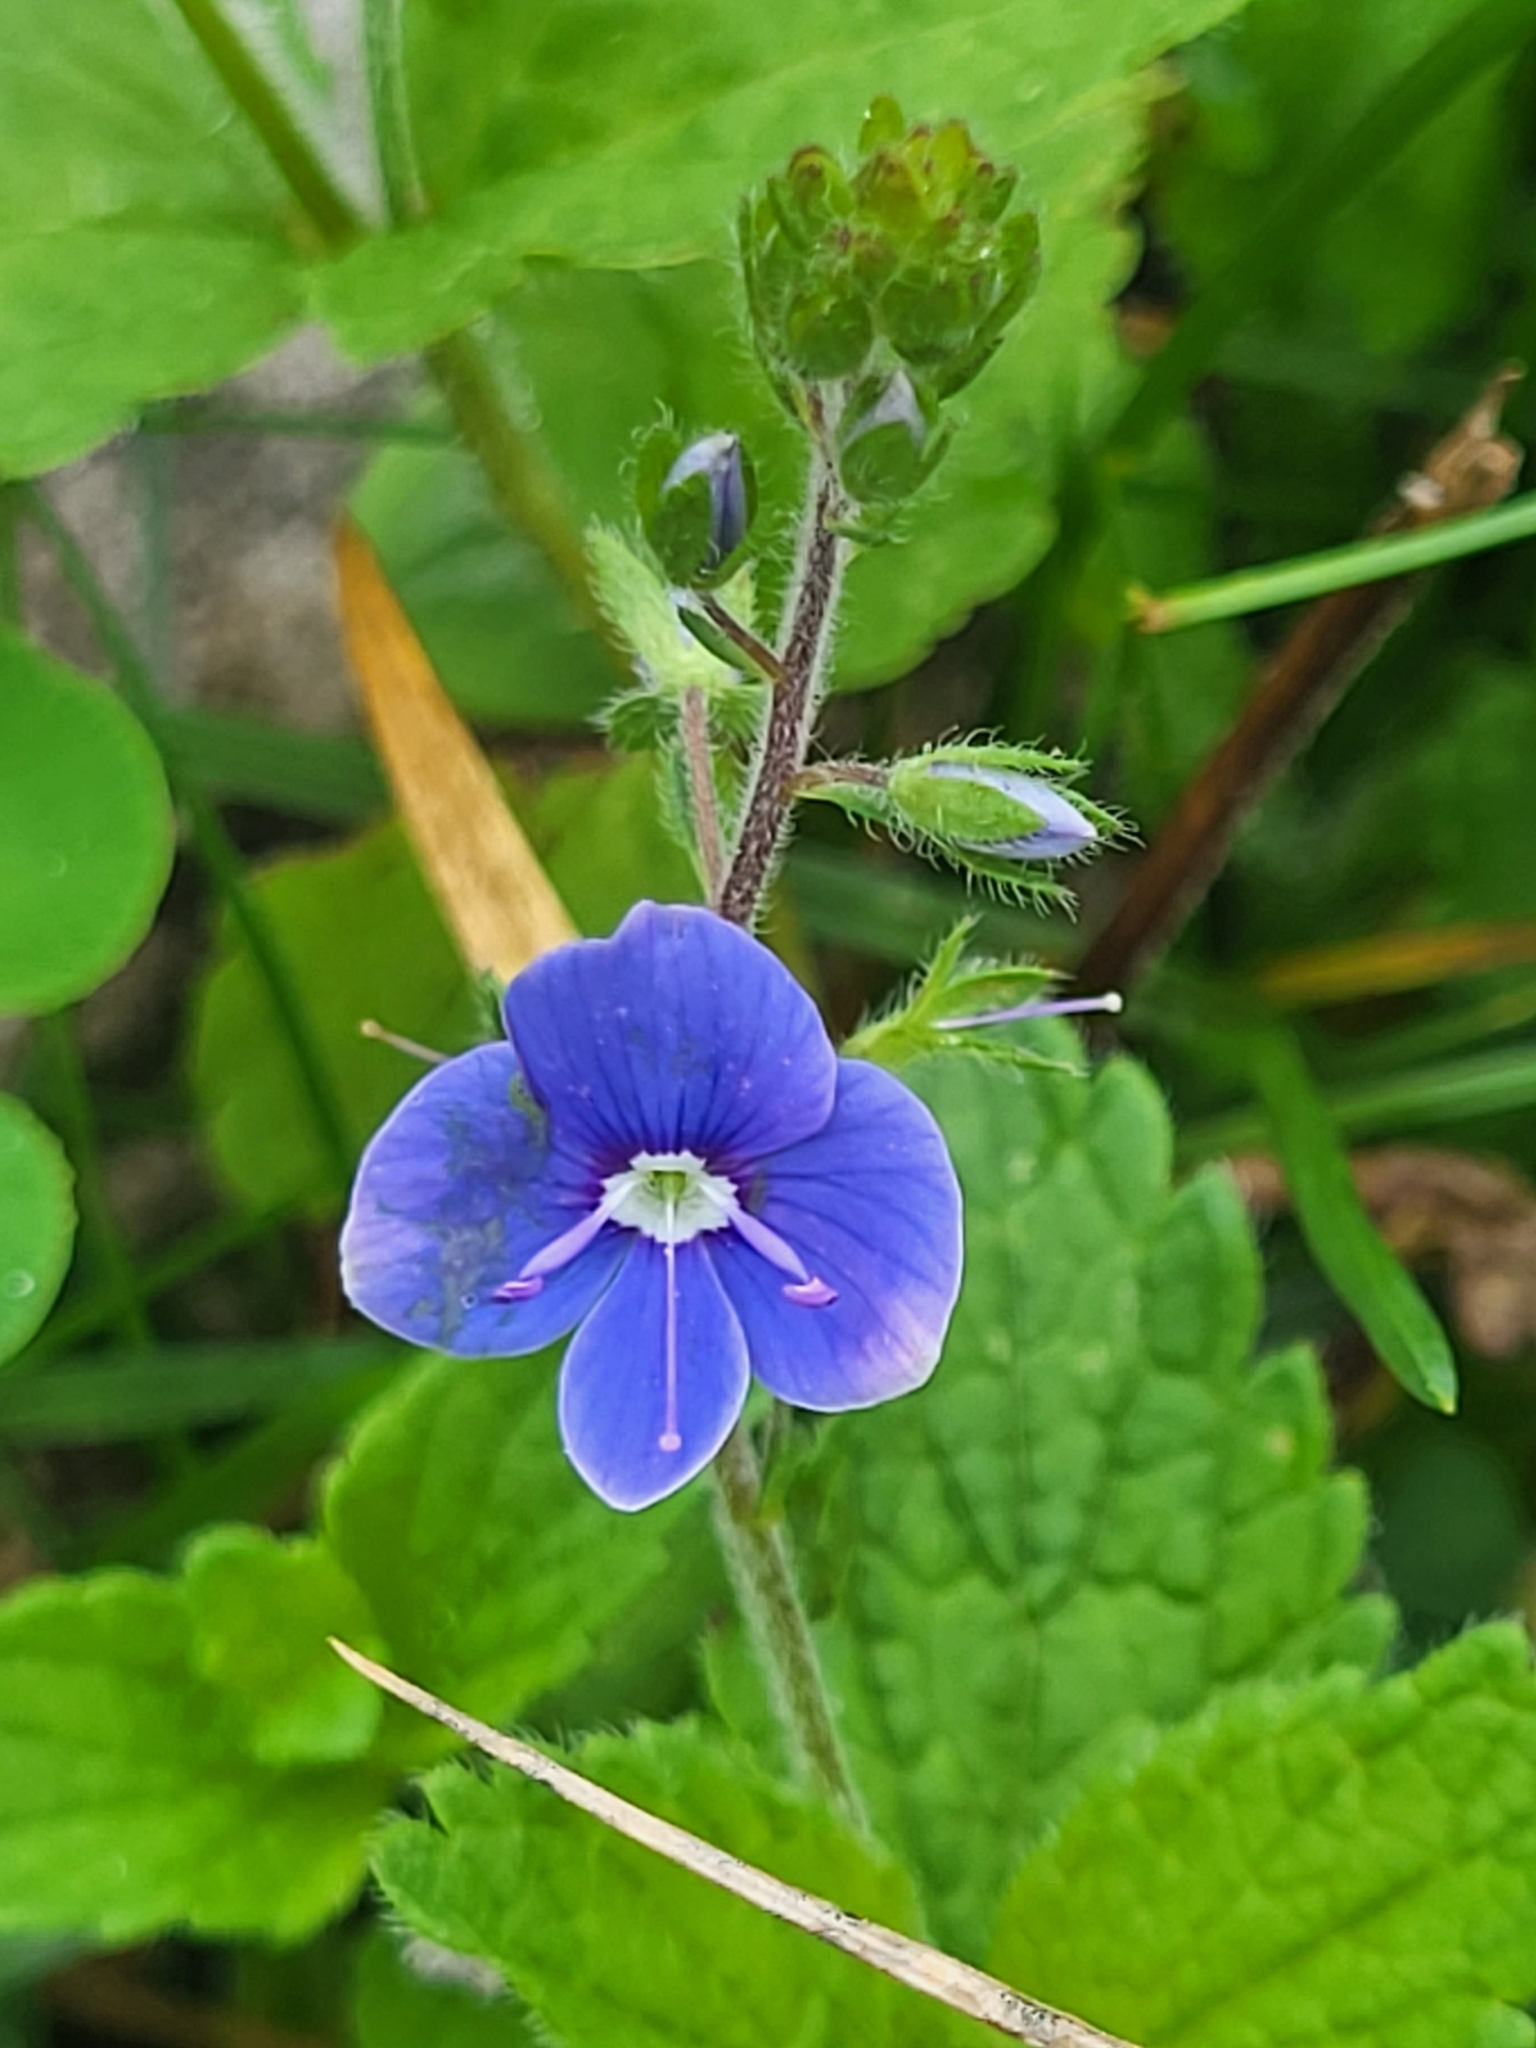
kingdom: Plantae
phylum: Tracheophyta
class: Magnoliopsida
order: Lamiales
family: Plantaginaceae
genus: Veronica
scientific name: Veronica chamaedrys
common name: Germander speedwell
